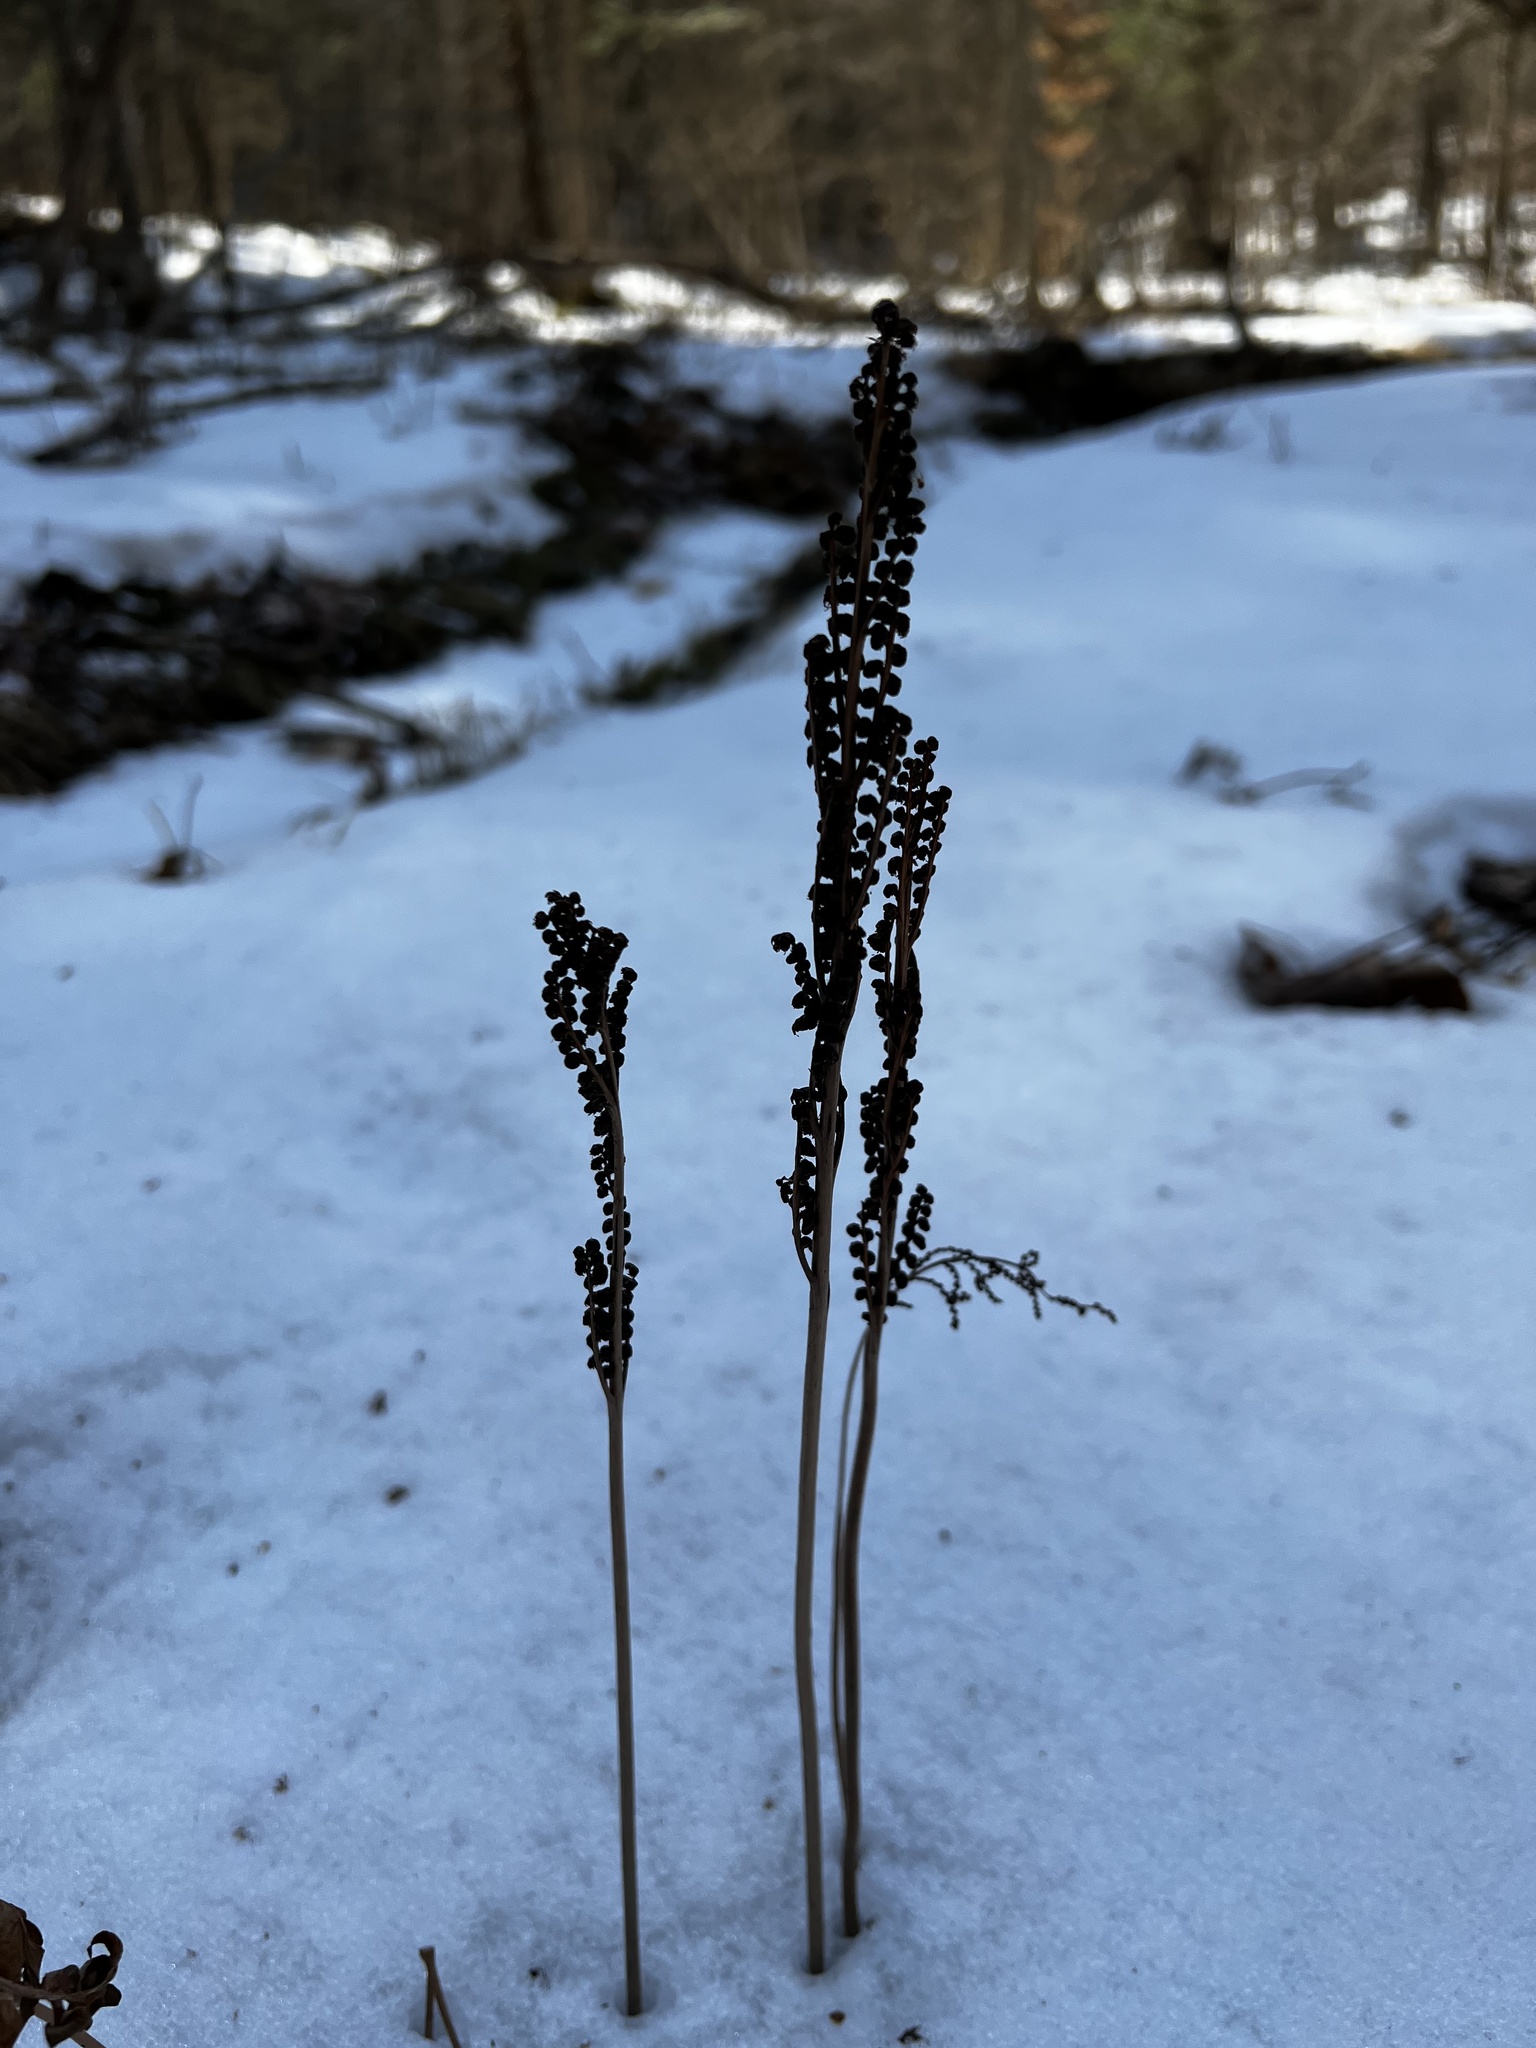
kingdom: Plantae
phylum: Tracheophyta
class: Polypodiopsida
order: Polypodiales
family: Onocleaceae
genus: Onoclea
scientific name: Onoclea sensibilis
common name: Sensitive fern
